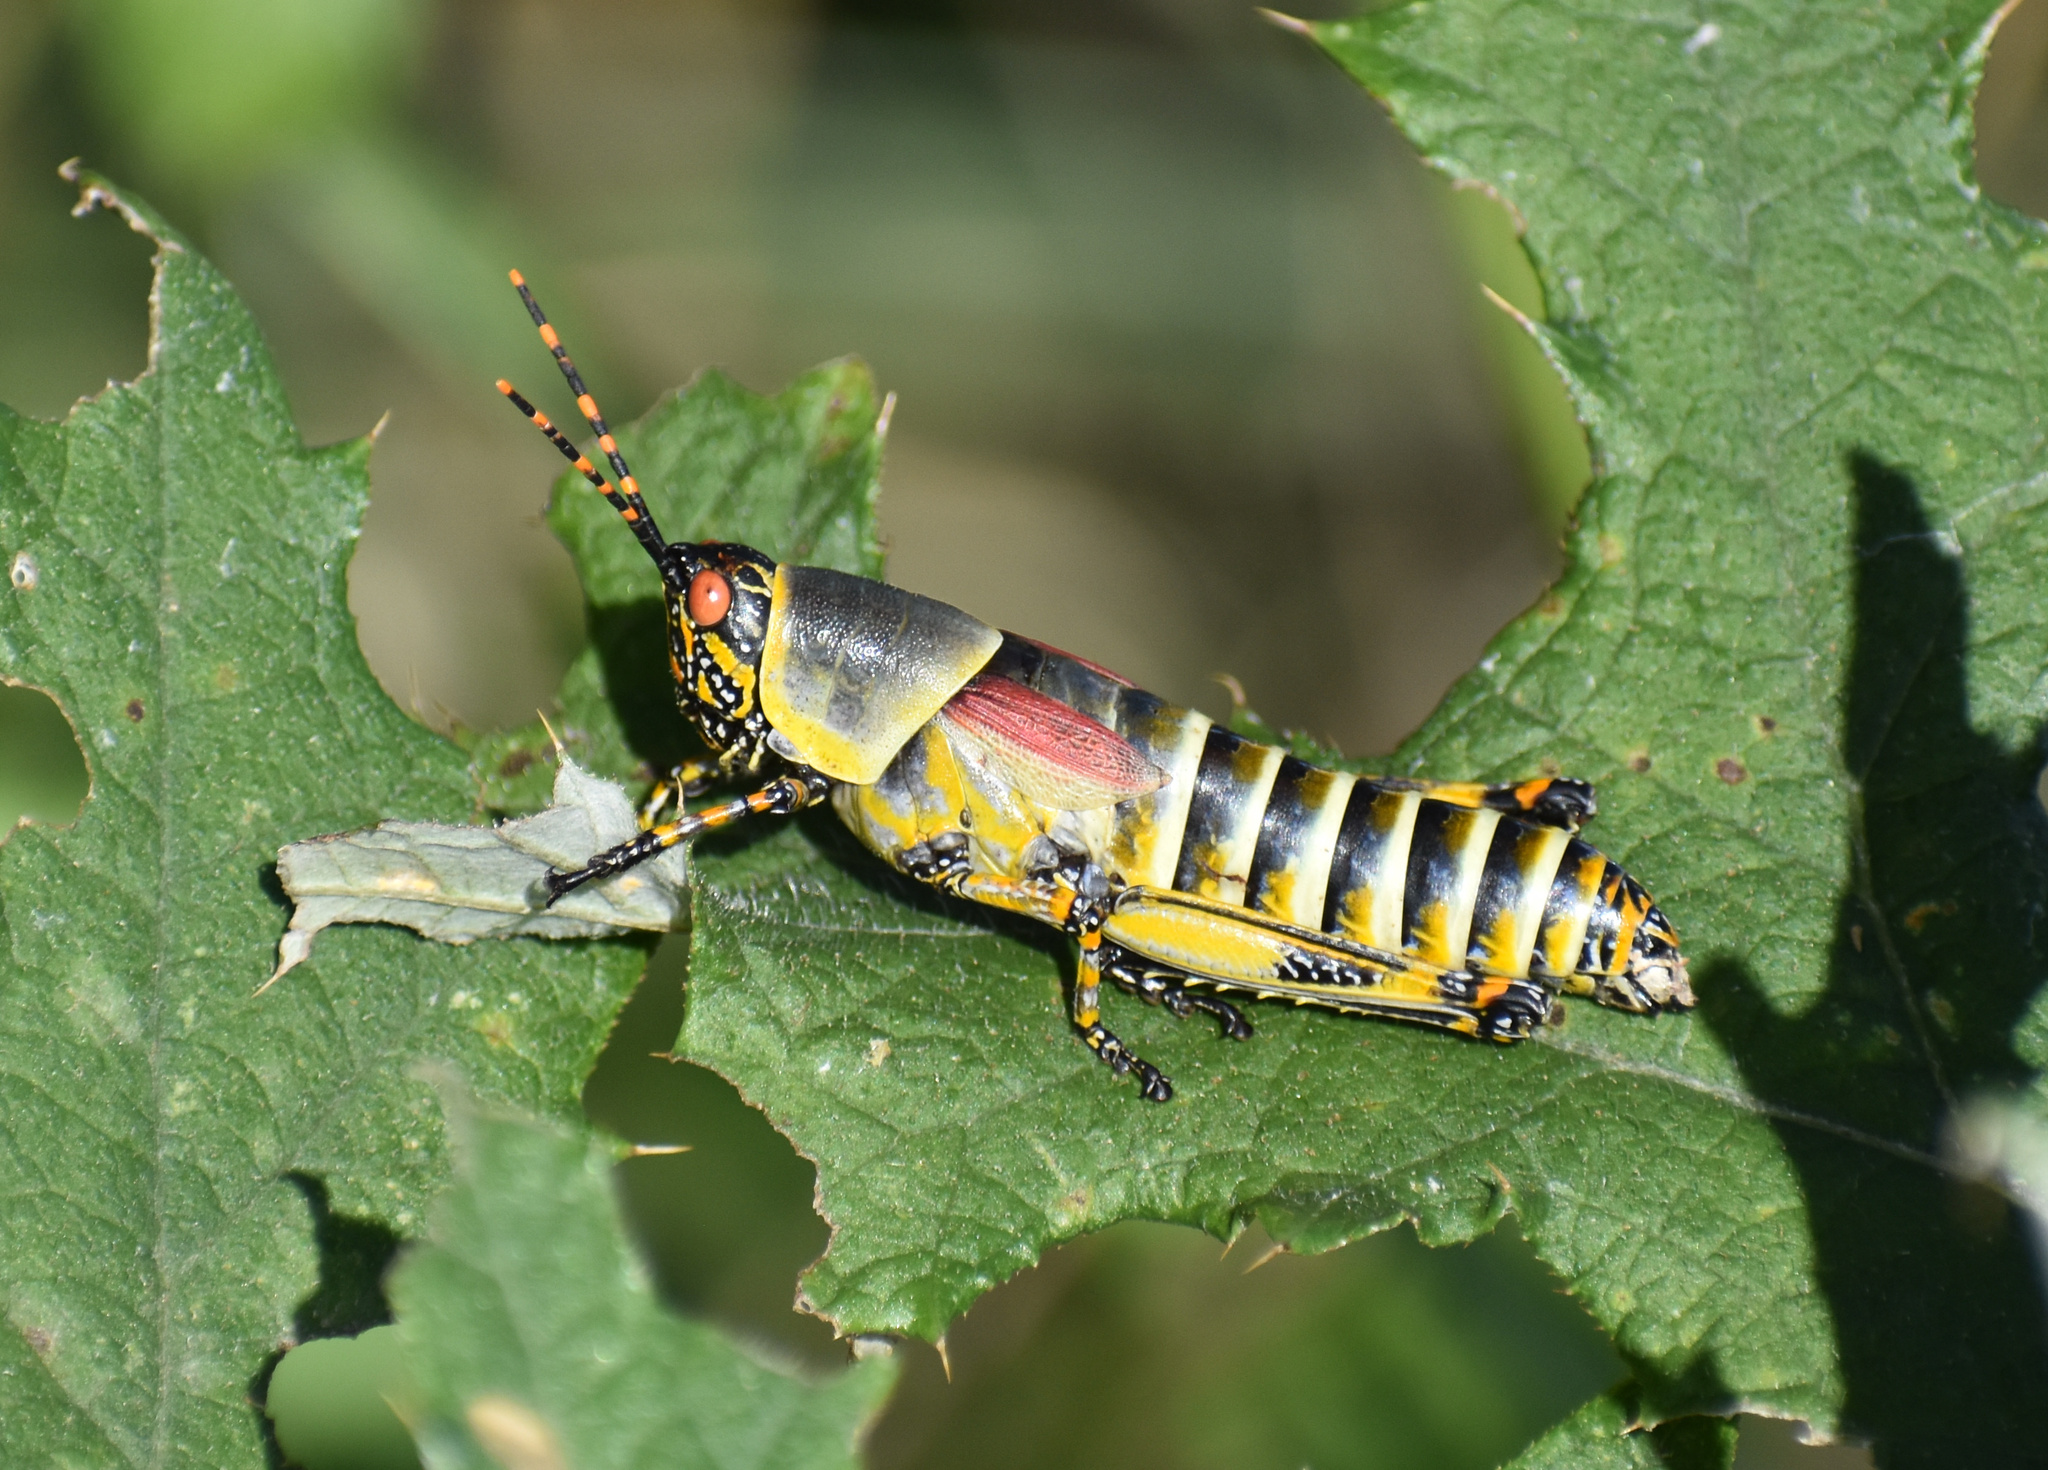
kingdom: Animalia
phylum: Arthropoda
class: Insecta
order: Orthoptera
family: Pyrgomorphidae
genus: Zonocerus
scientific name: Zonocerus elegans
